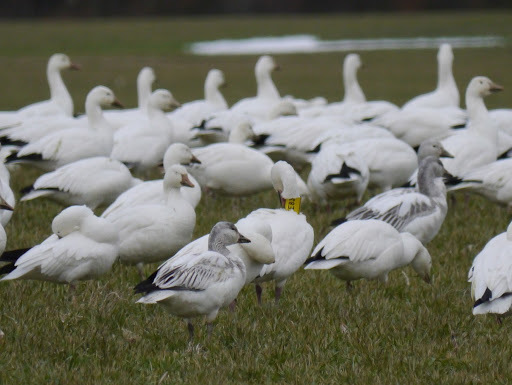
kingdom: Animalia
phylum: Chordata
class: Aves
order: Anseriformes
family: Anatidae
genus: Anser
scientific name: Anser caerulescens
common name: Snow goose
